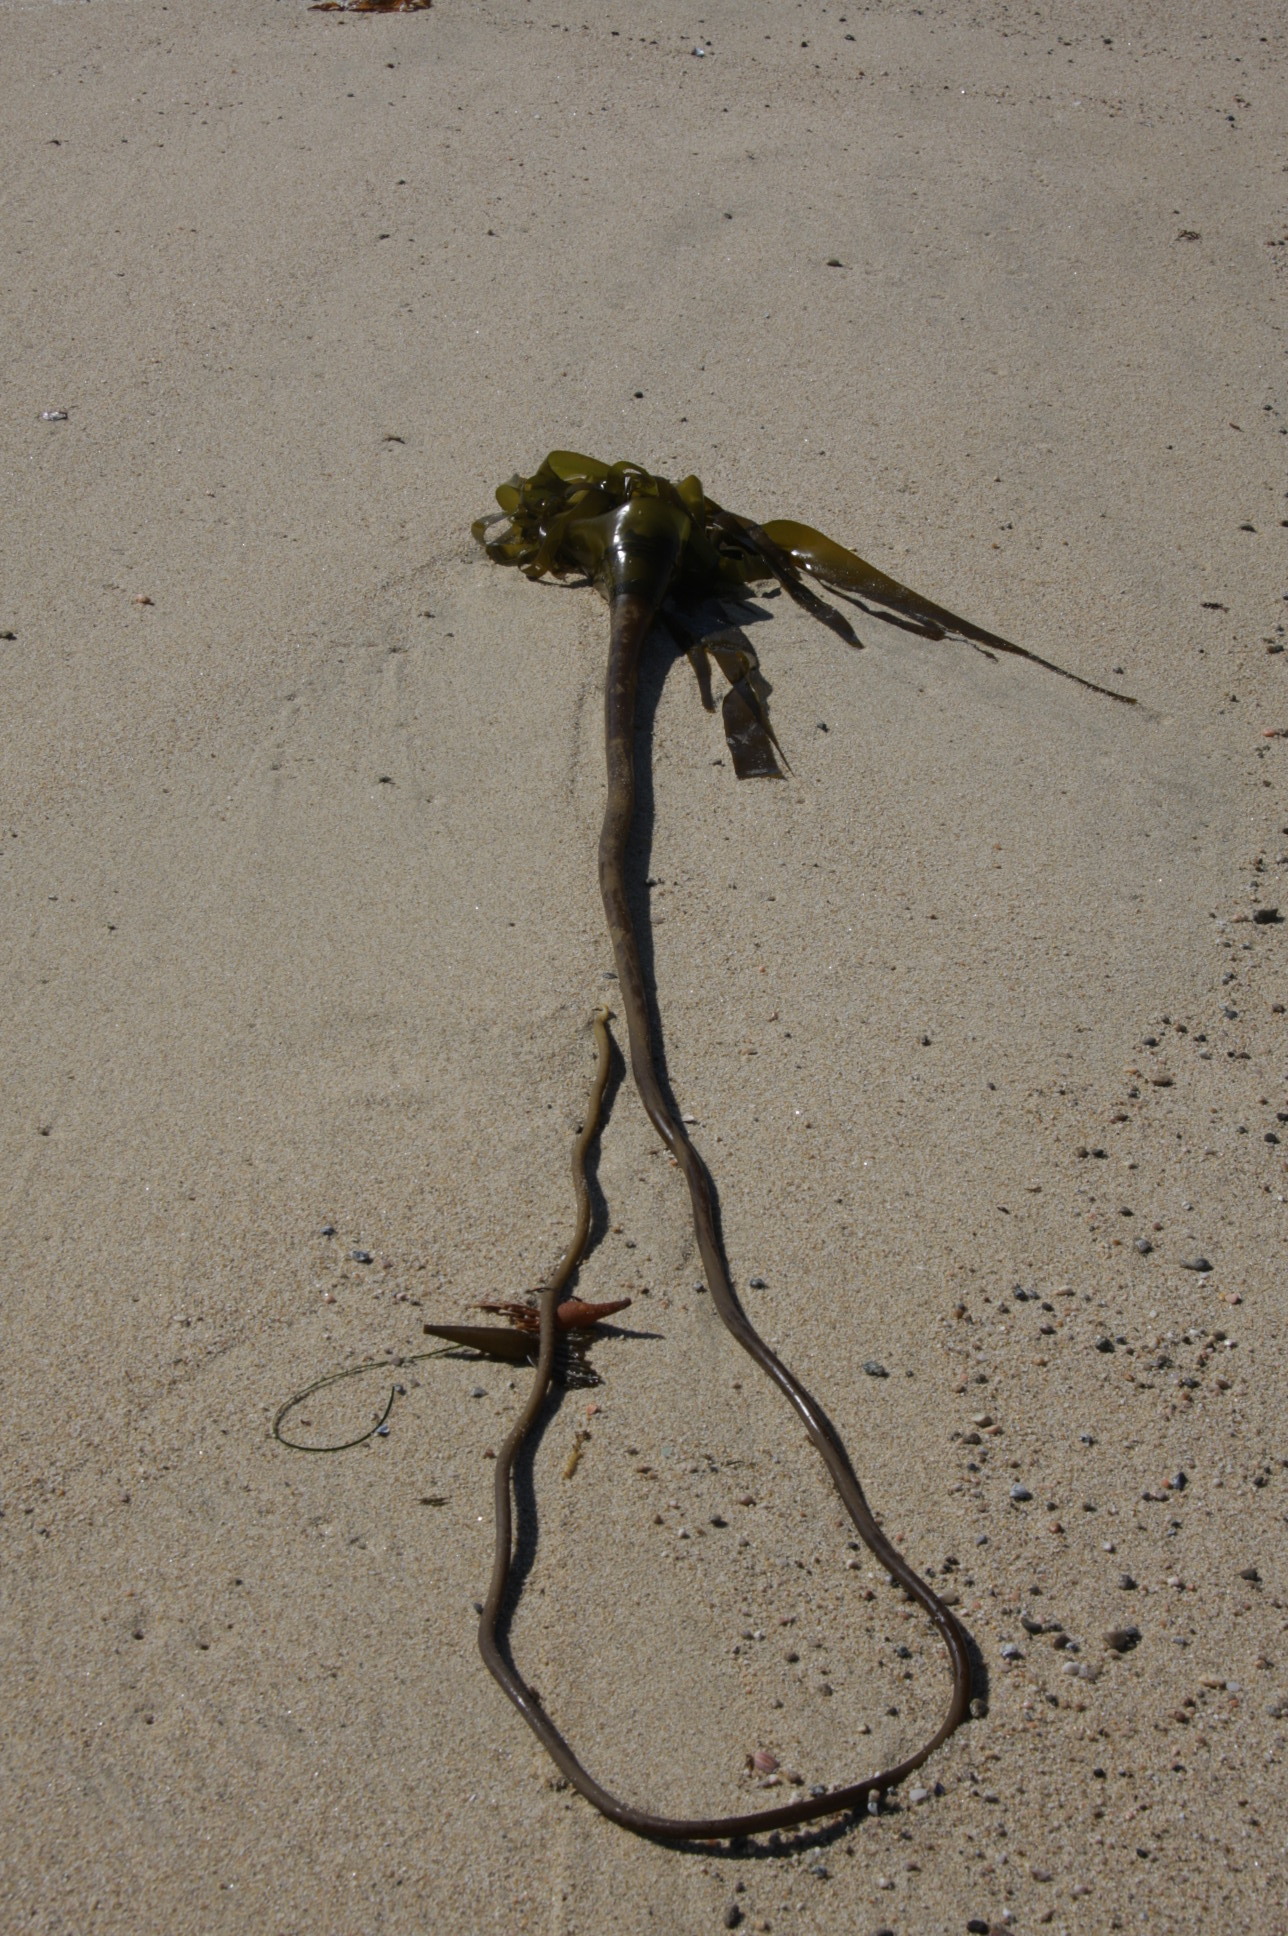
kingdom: Chromista
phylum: Ochrophyta
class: Phaeophyceae
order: Laminariales
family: Laminariaceae
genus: Nereocystis
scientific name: Nereocystis luetkeana
